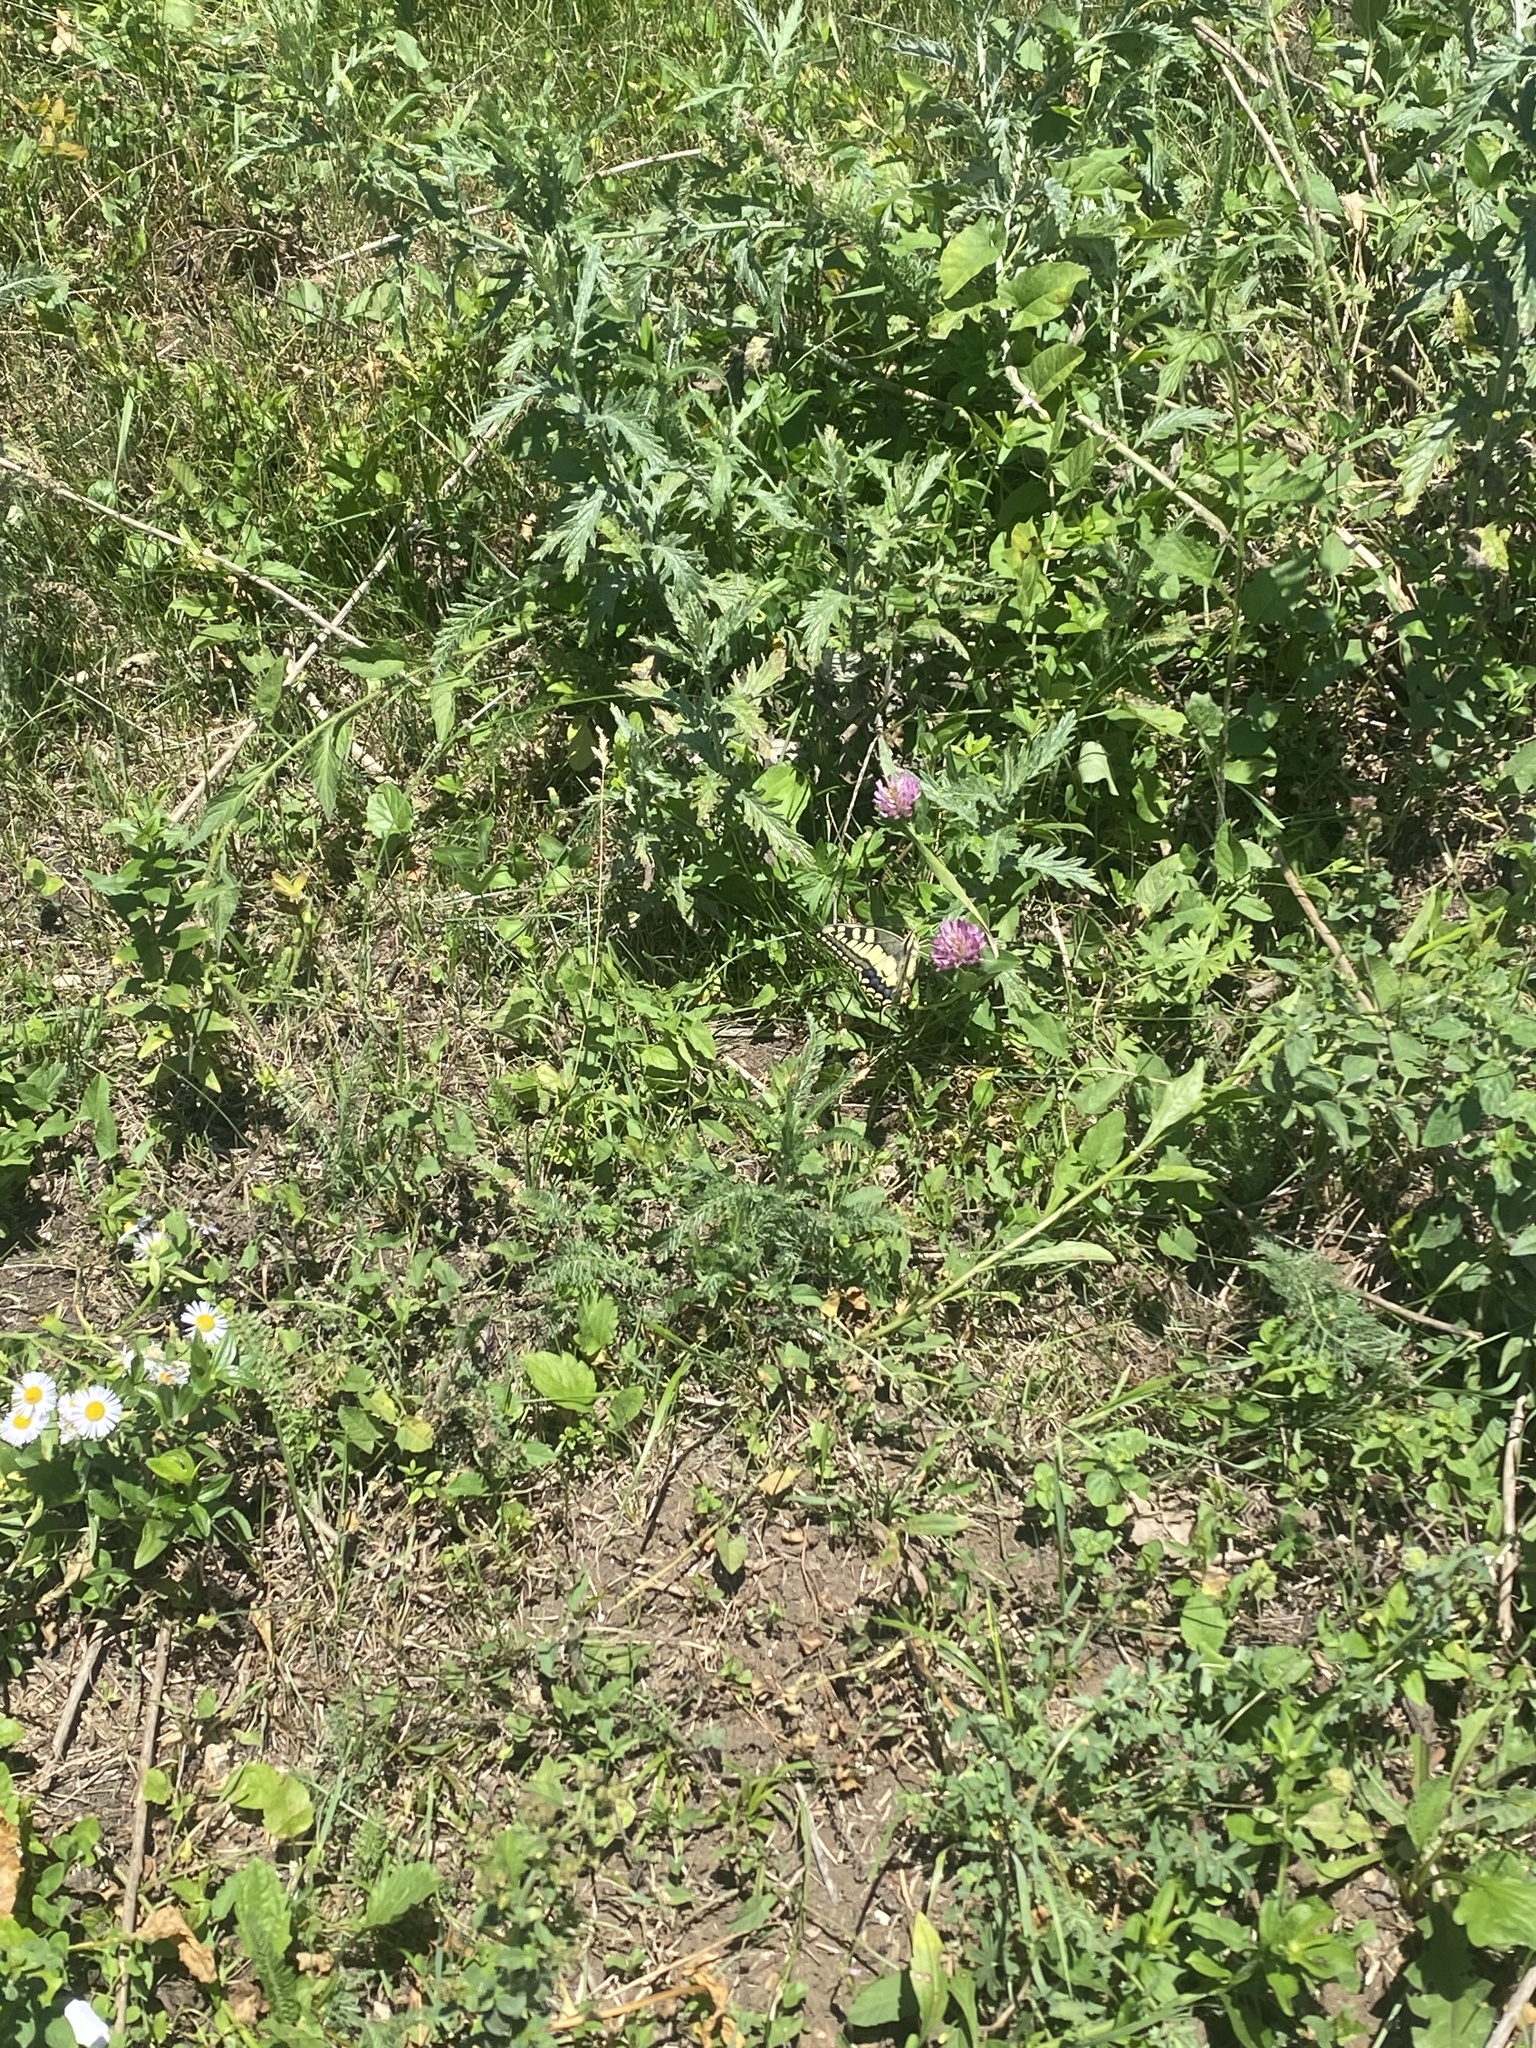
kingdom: Animalia
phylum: Arthropoda
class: Insecta
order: Lepidoptera
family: Papilionidae
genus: Papilio
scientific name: Papilio machaon
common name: Swallowtail
